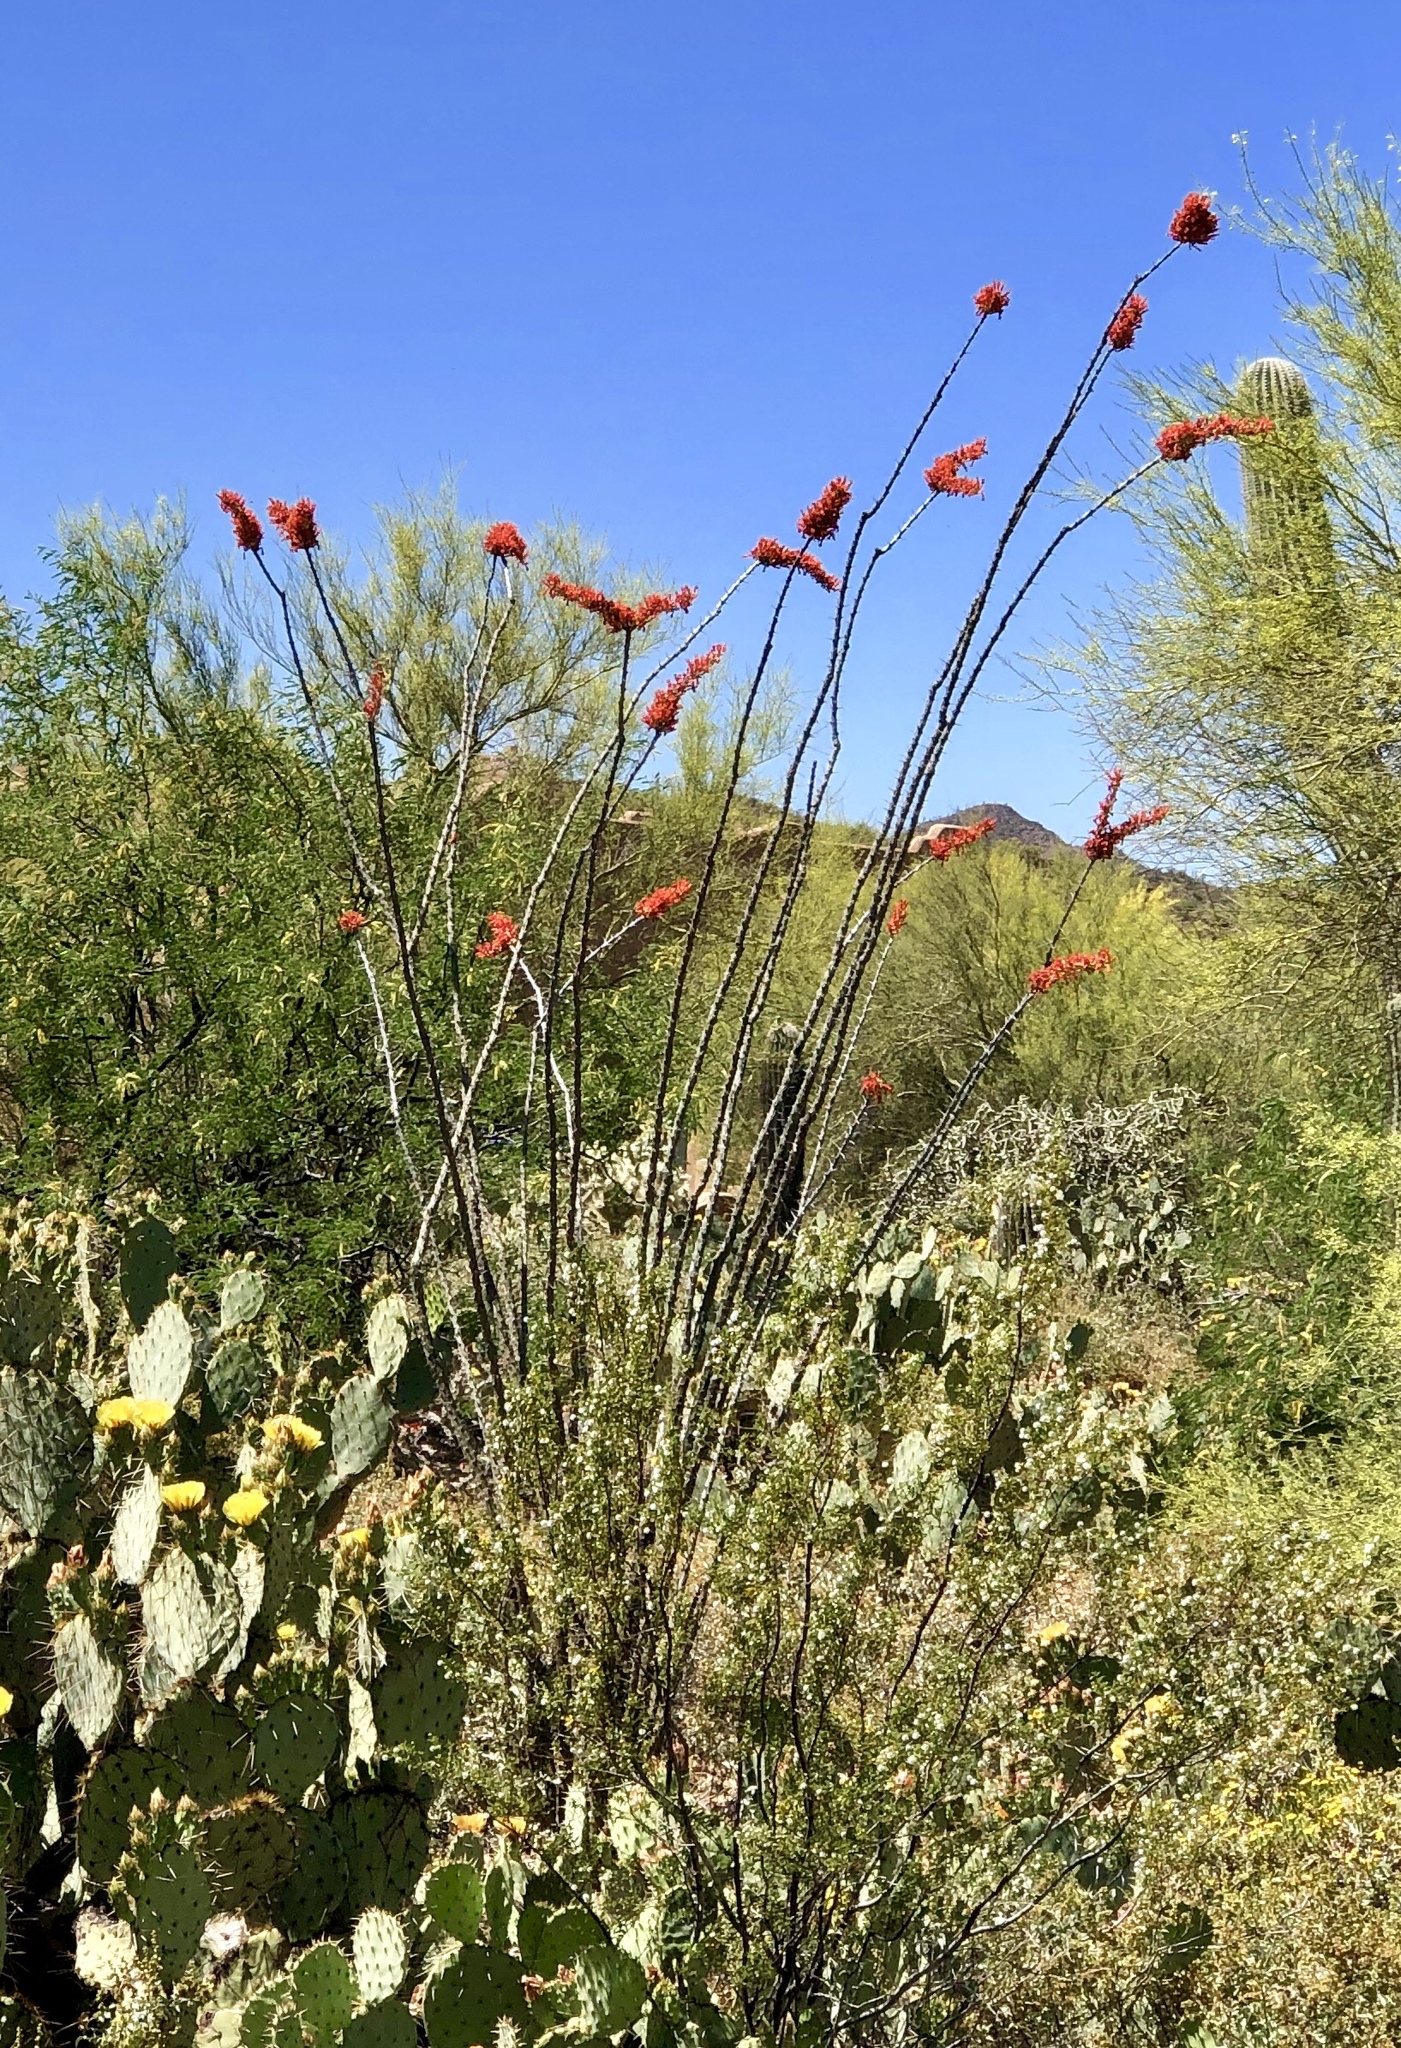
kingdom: Plantae
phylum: Tracheophyta
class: Magnoliopsida
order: Ericales
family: Fouquieriaceae
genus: Fouquieria
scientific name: Fouquieria splendens
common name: Vine-cactus
